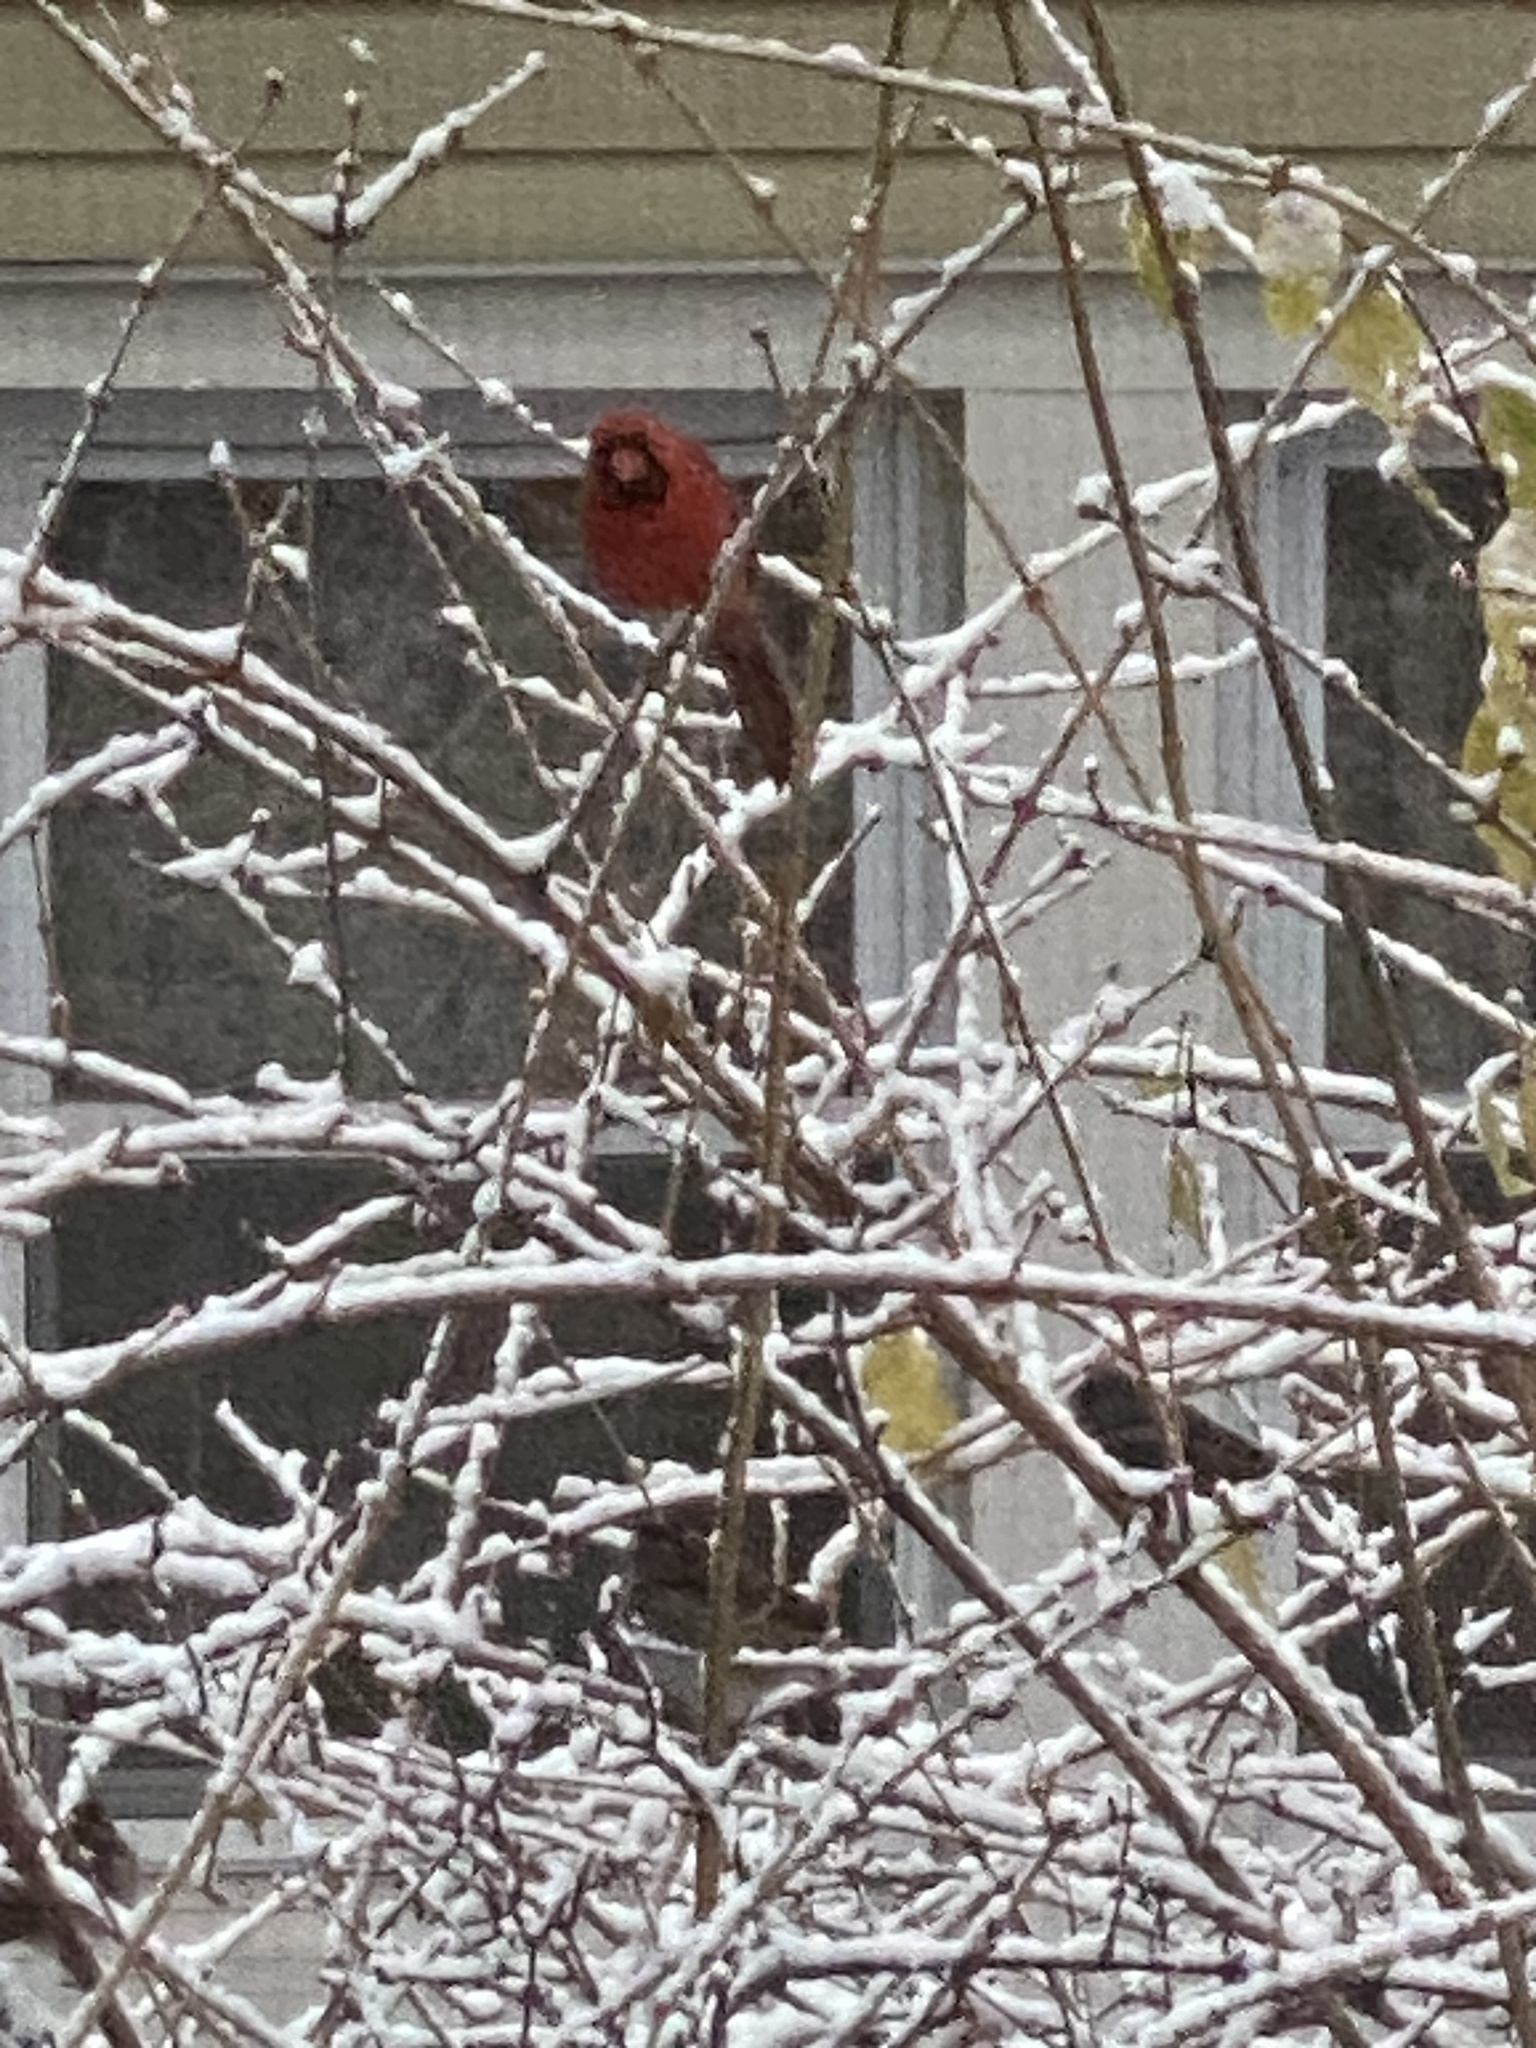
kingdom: Animalia
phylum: Chordata
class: Aves
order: Passeriformes
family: Cardinalidae
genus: Cardinalis
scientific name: Cardinalis cardinalis
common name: Northern cardinal
